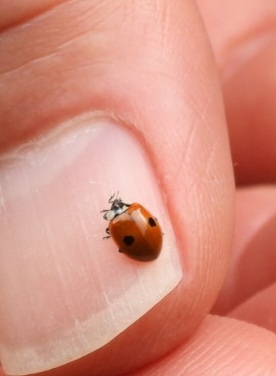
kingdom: Animalia
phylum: Arthropoda
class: Insecta
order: Coleoptera
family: Coccinellidae
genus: Adalia
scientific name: Adalia bipunctata
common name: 2-spot ladybird
